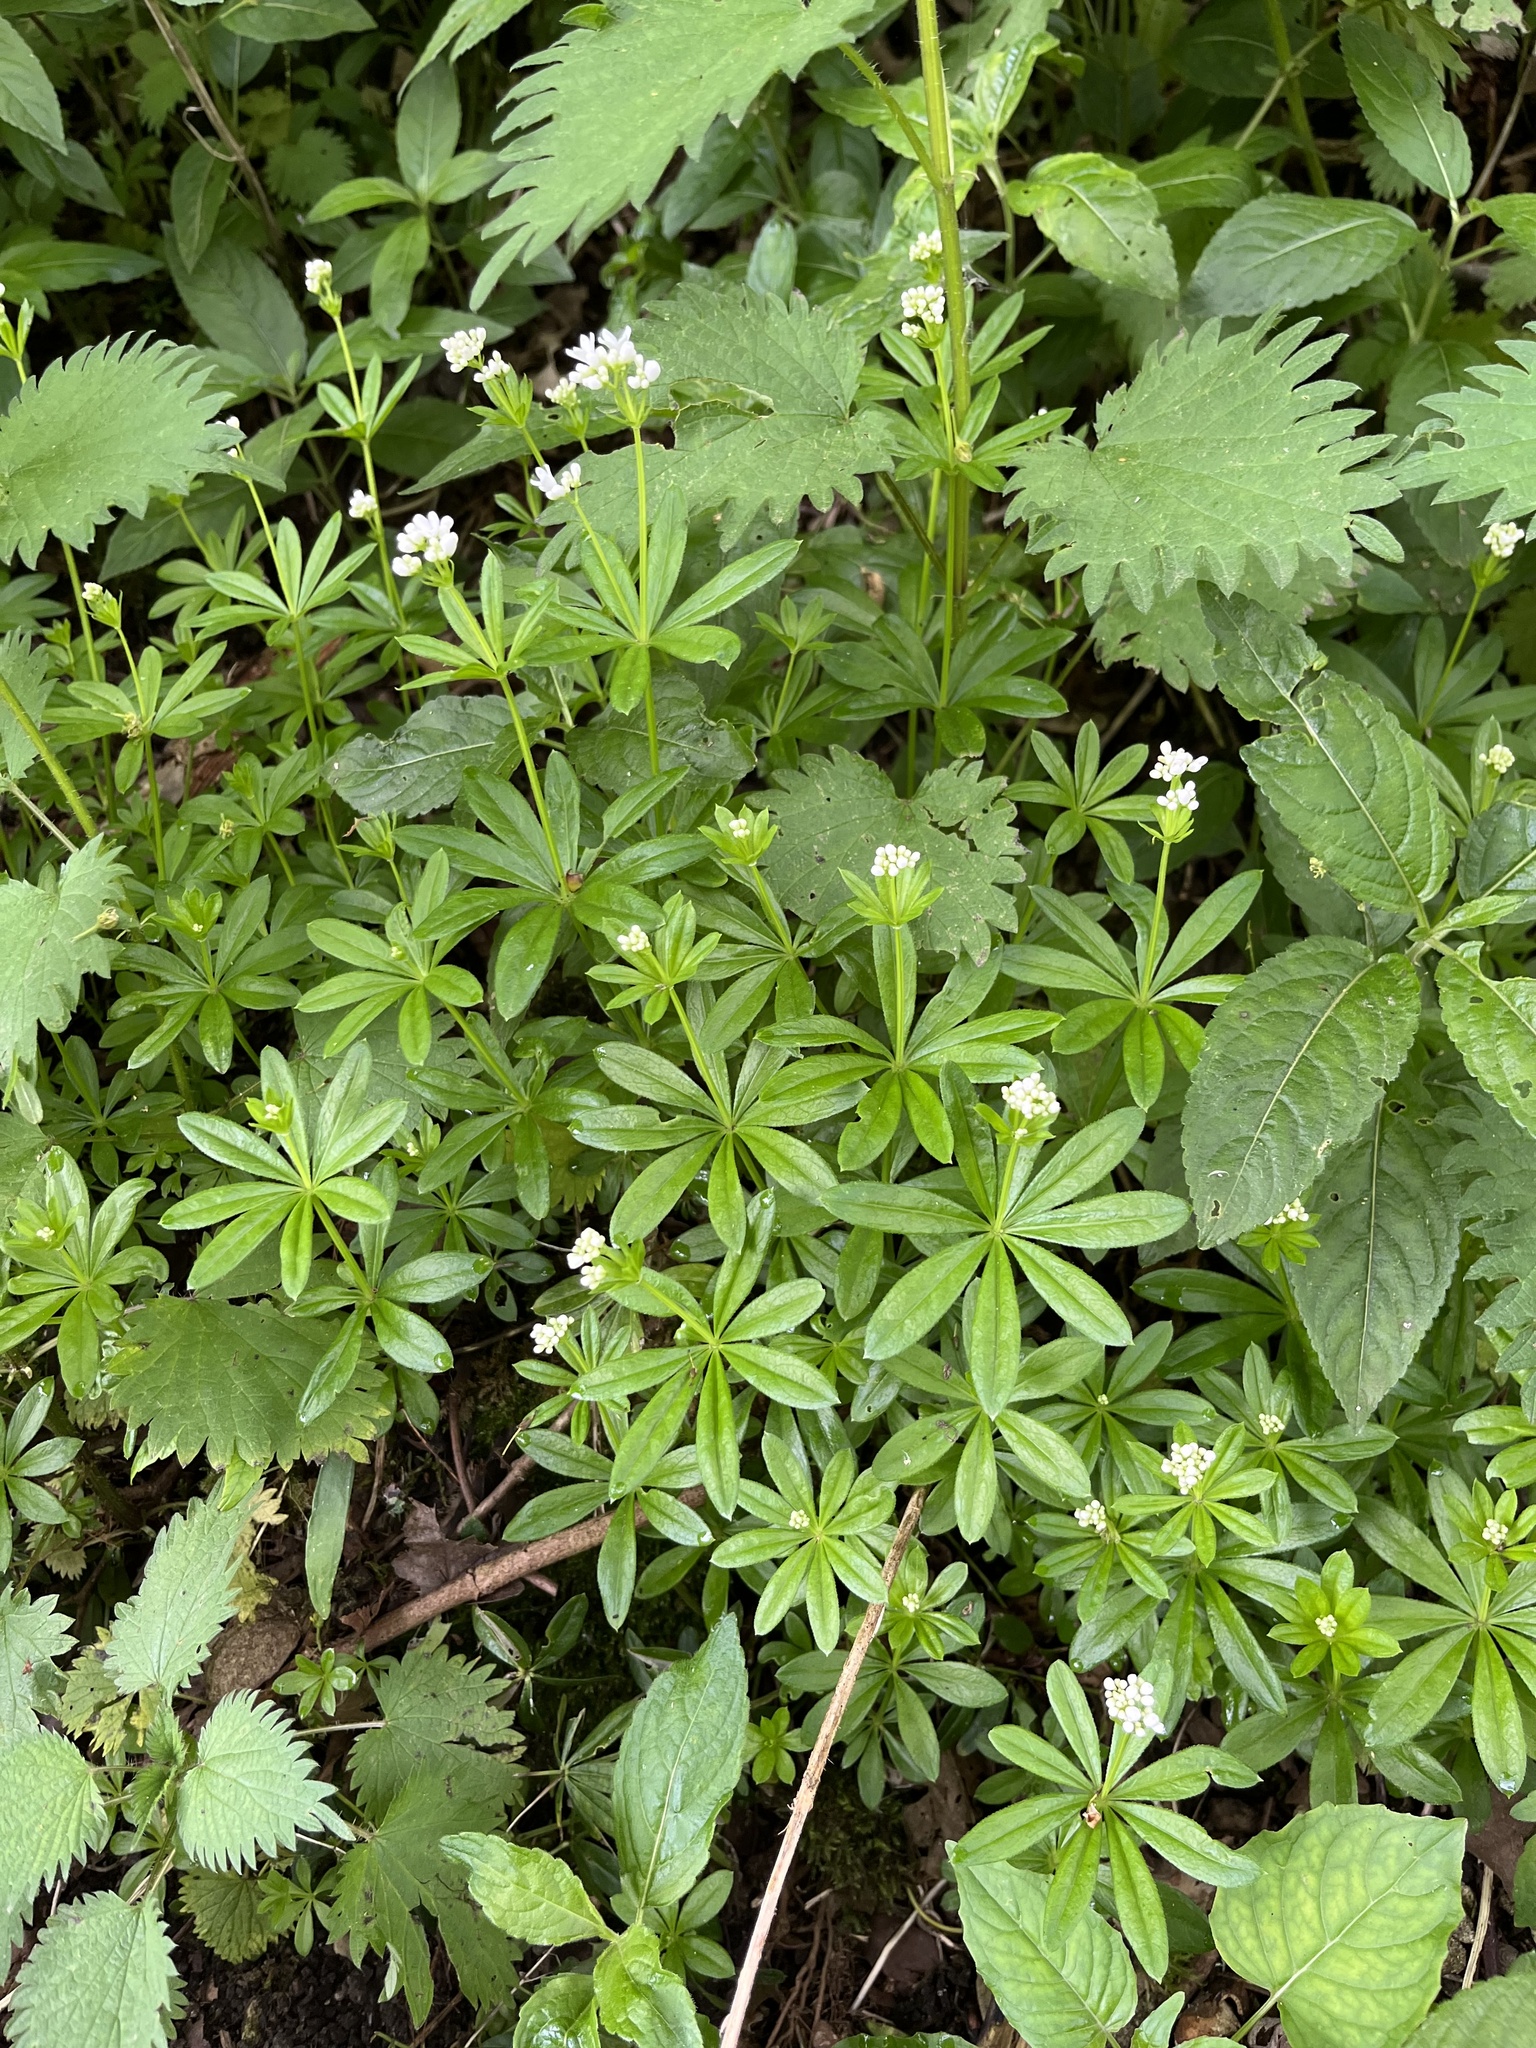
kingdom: Plantae
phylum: Tracheophyta
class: Magnoliopsida
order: Gentianales
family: Rubiaceae
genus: Galium
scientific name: Galium odoratum
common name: Sweet woodruff
